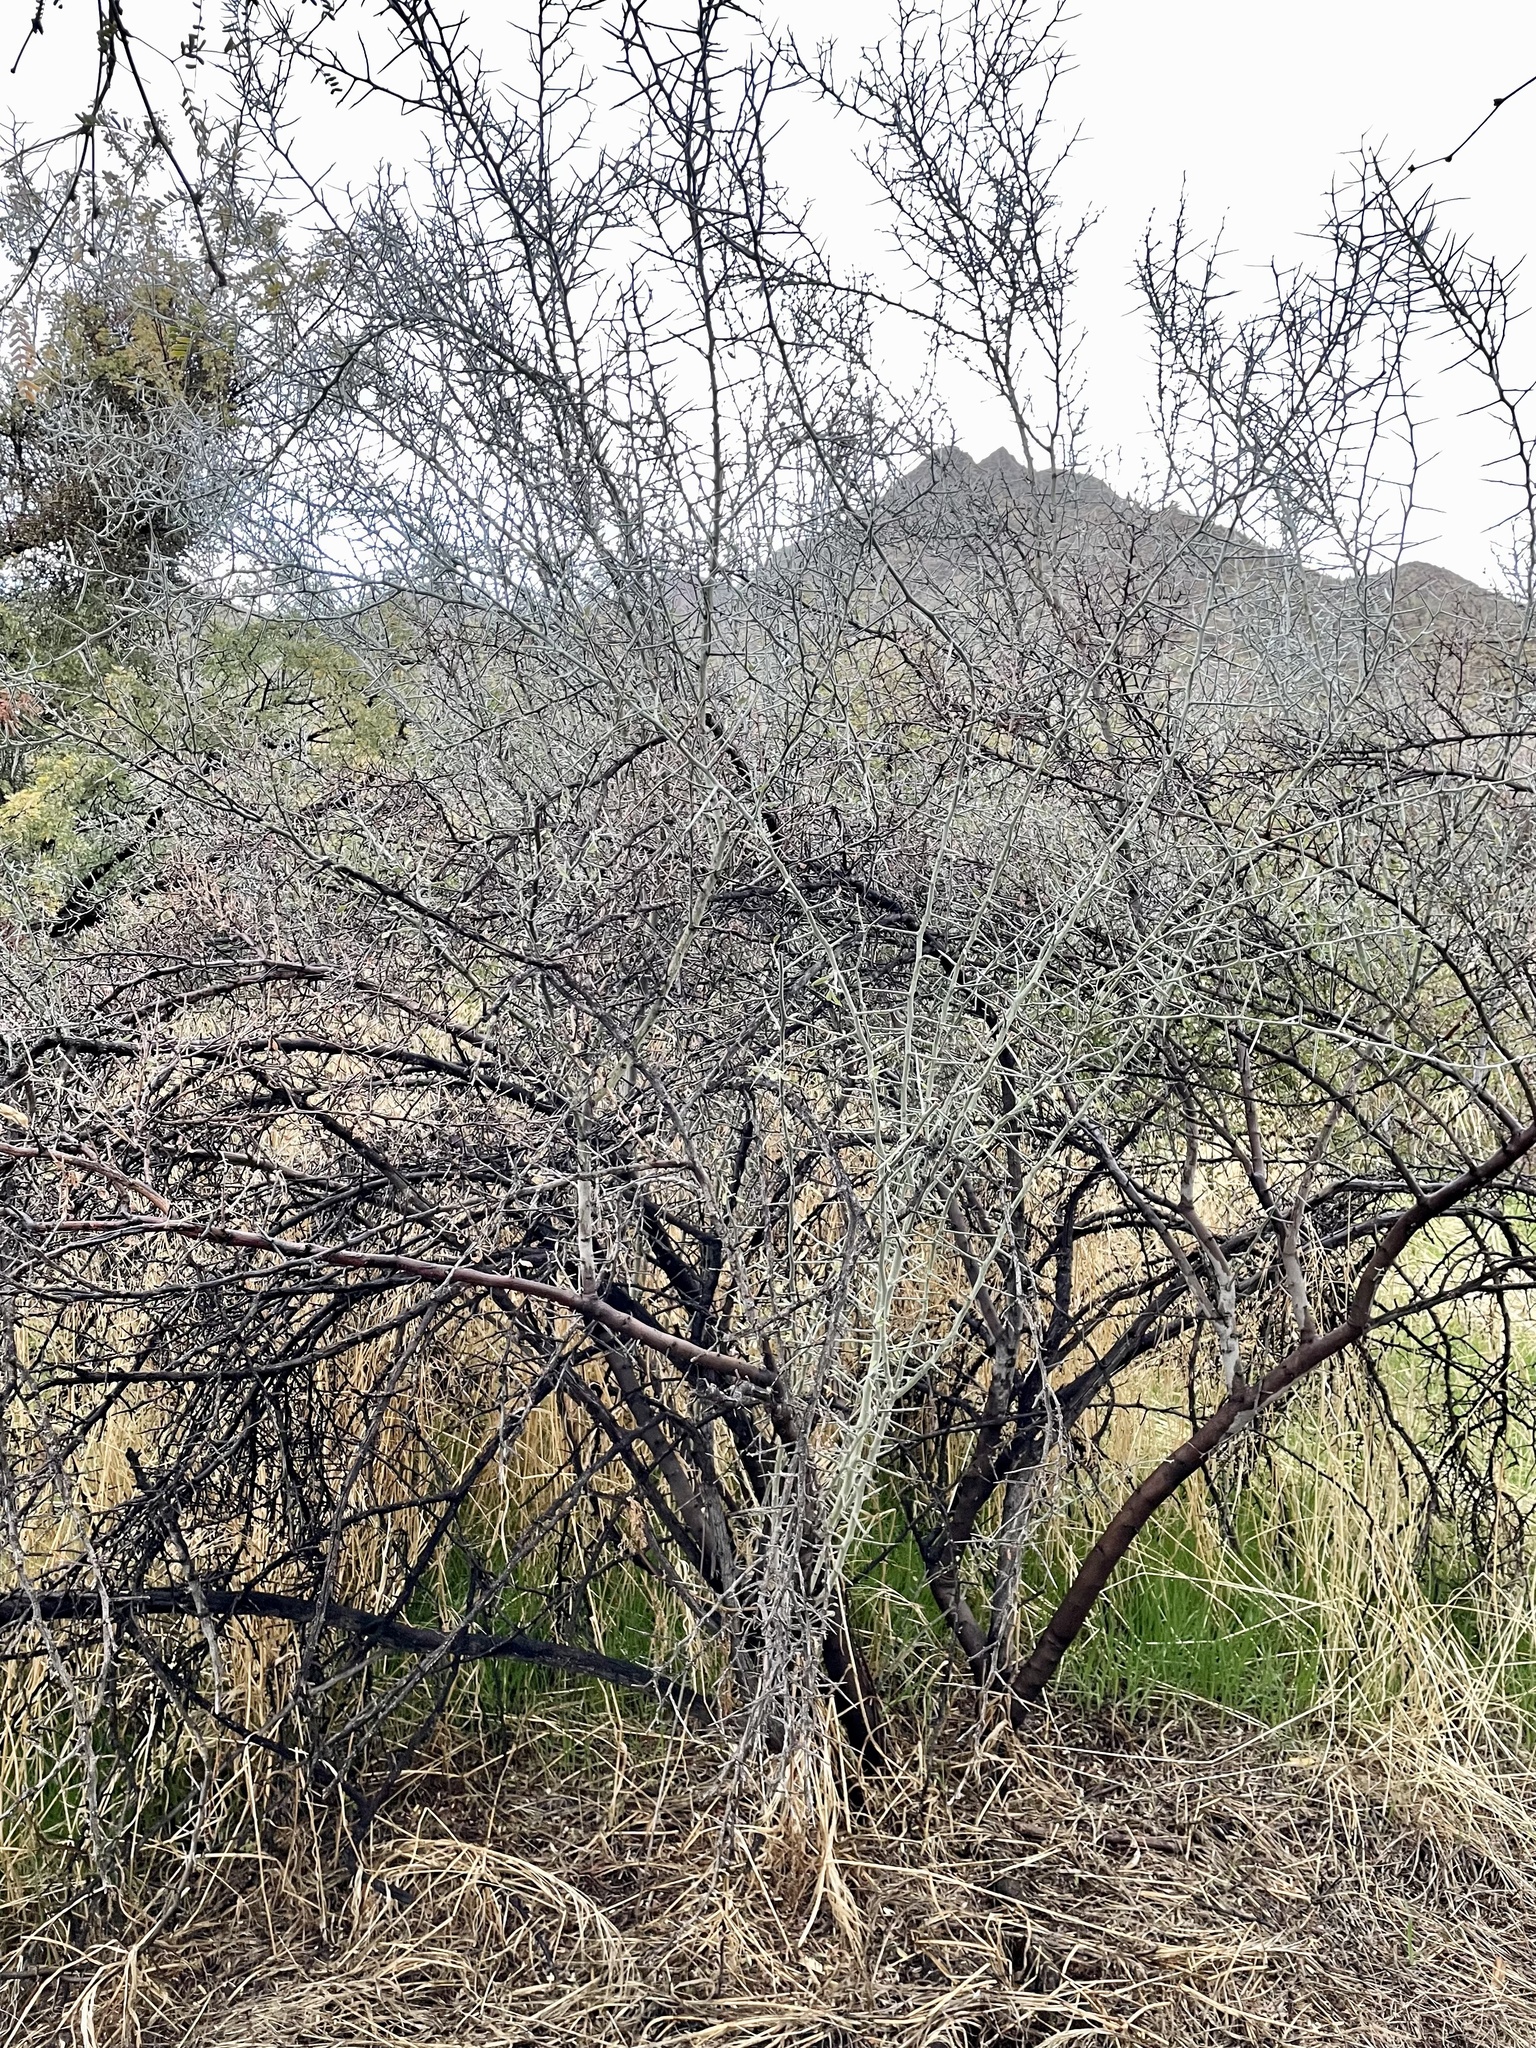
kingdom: Plantae
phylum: Tracheophyta
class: Magnoliopsida
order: Rosales
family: Rhamnaceae
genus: Sarcomphalus
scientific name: Sarcomphalus obtusifolius
